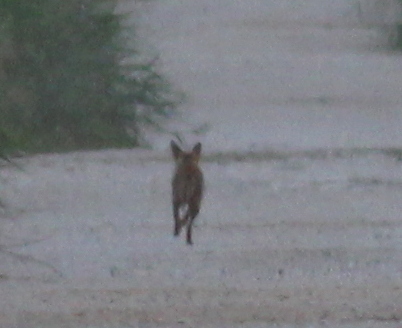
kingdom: Animalia
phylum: Chordata
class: Mammalia
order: Carnivora
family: Canidae
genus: Vulpes
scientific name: Vulpes vulpes
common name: Red fox
